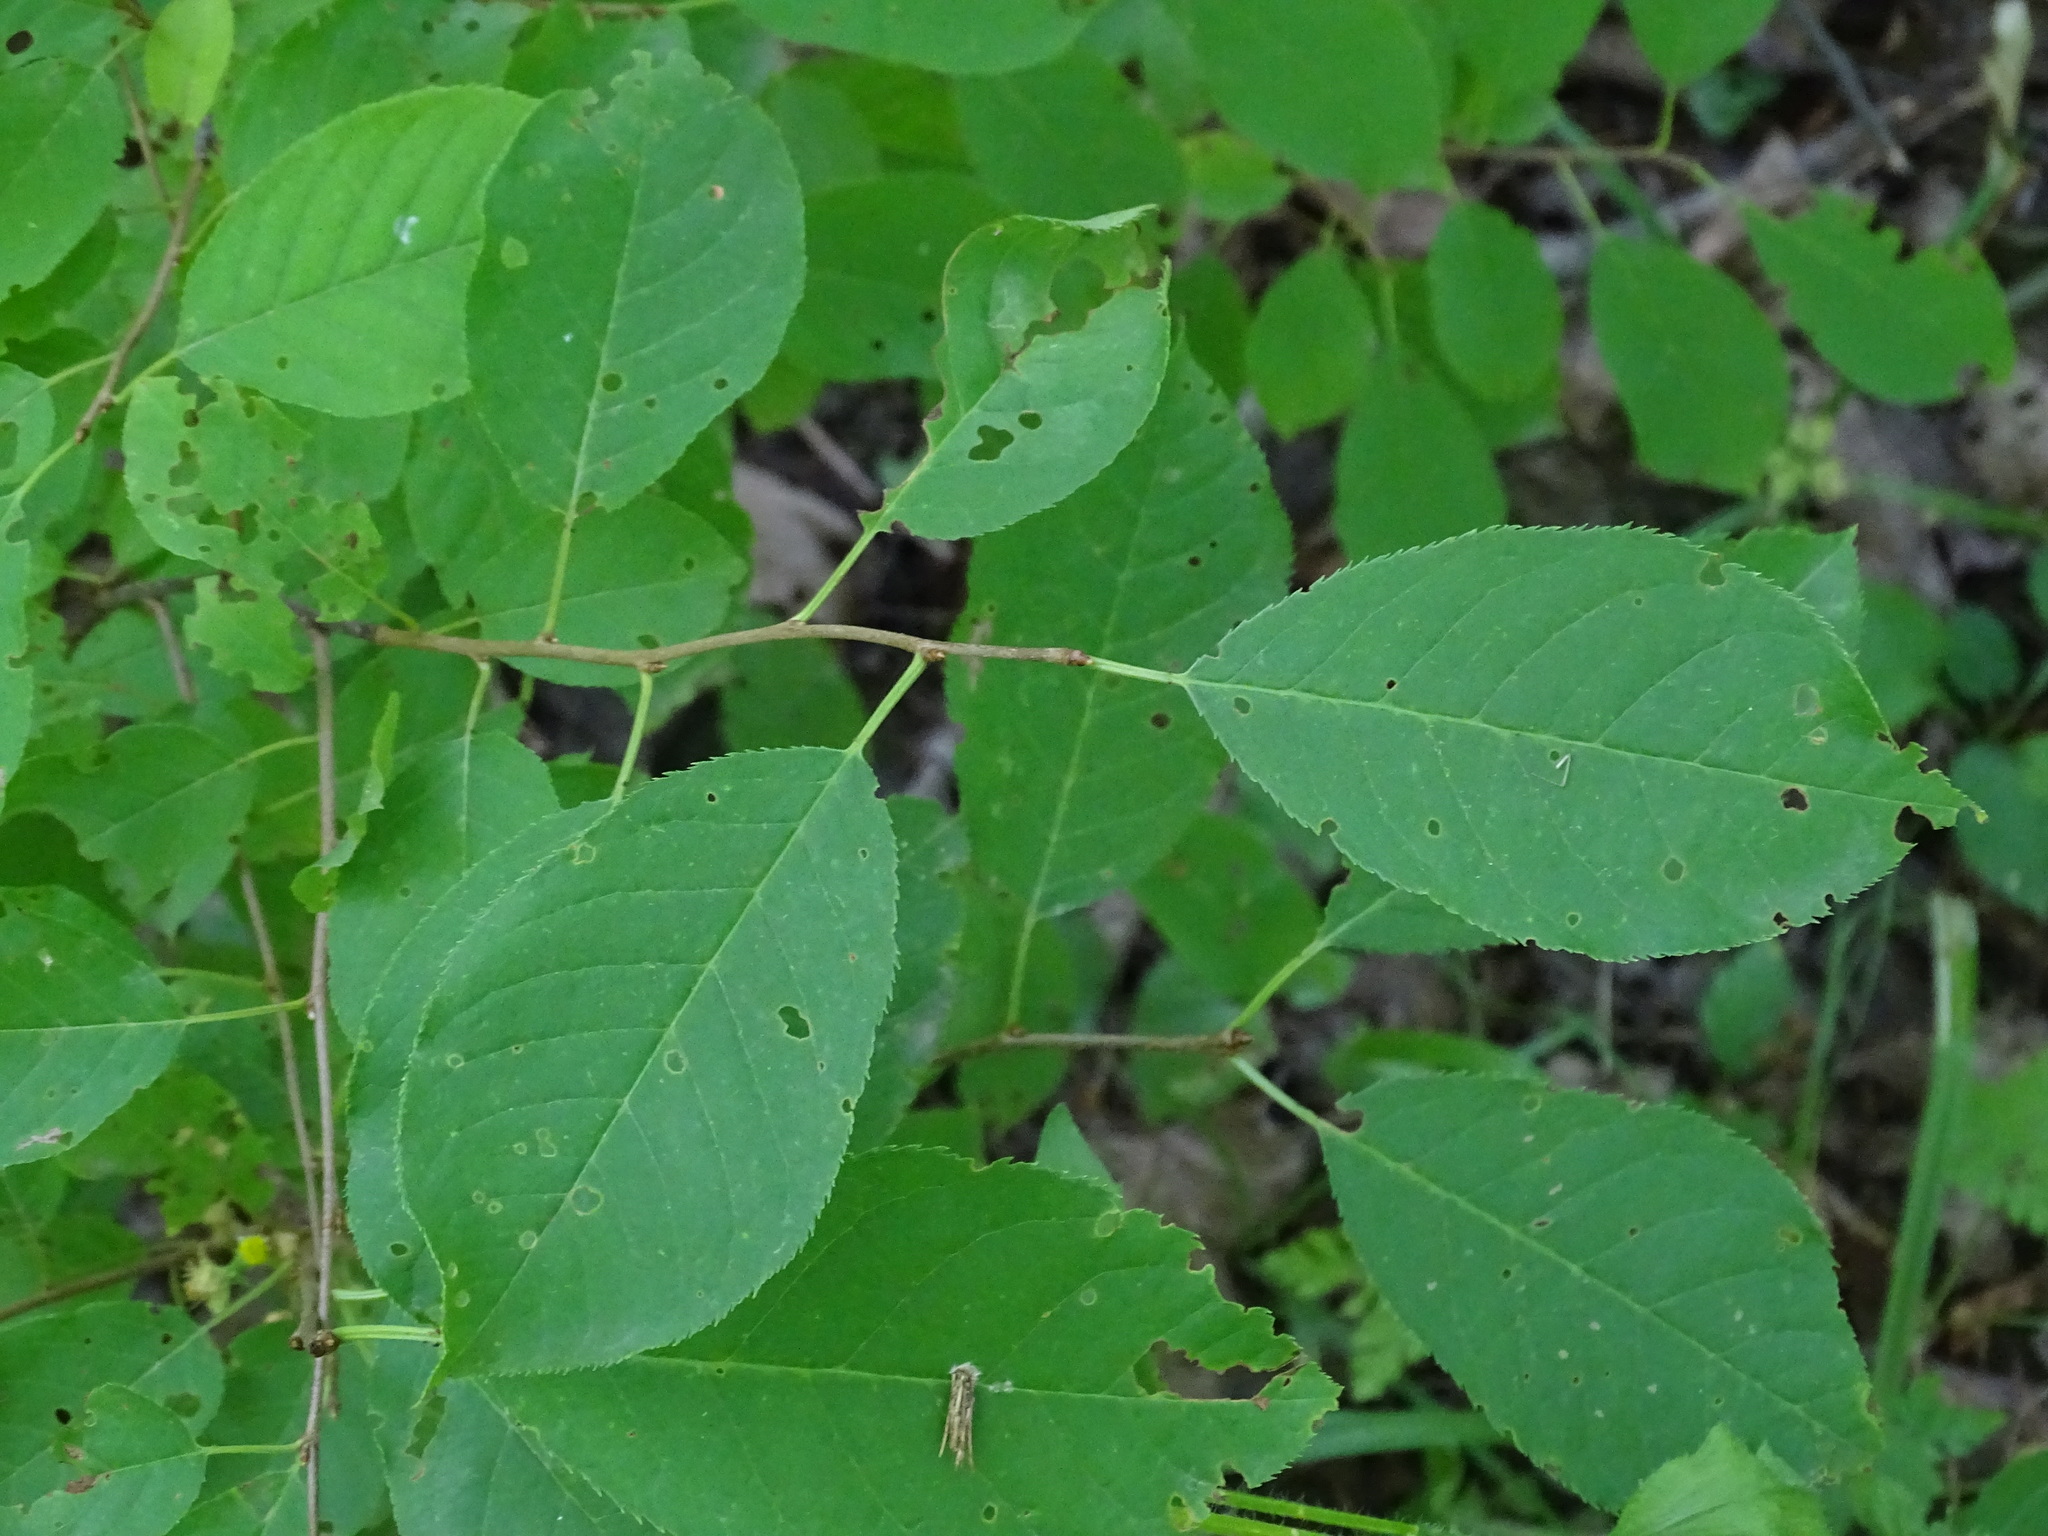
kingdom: Plantae
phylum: Tracheophyta
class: Magnoliopsida
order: Rosales
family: Rosaceae
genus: Prunus
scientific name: Prunus virginiana
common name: Chokecherry
